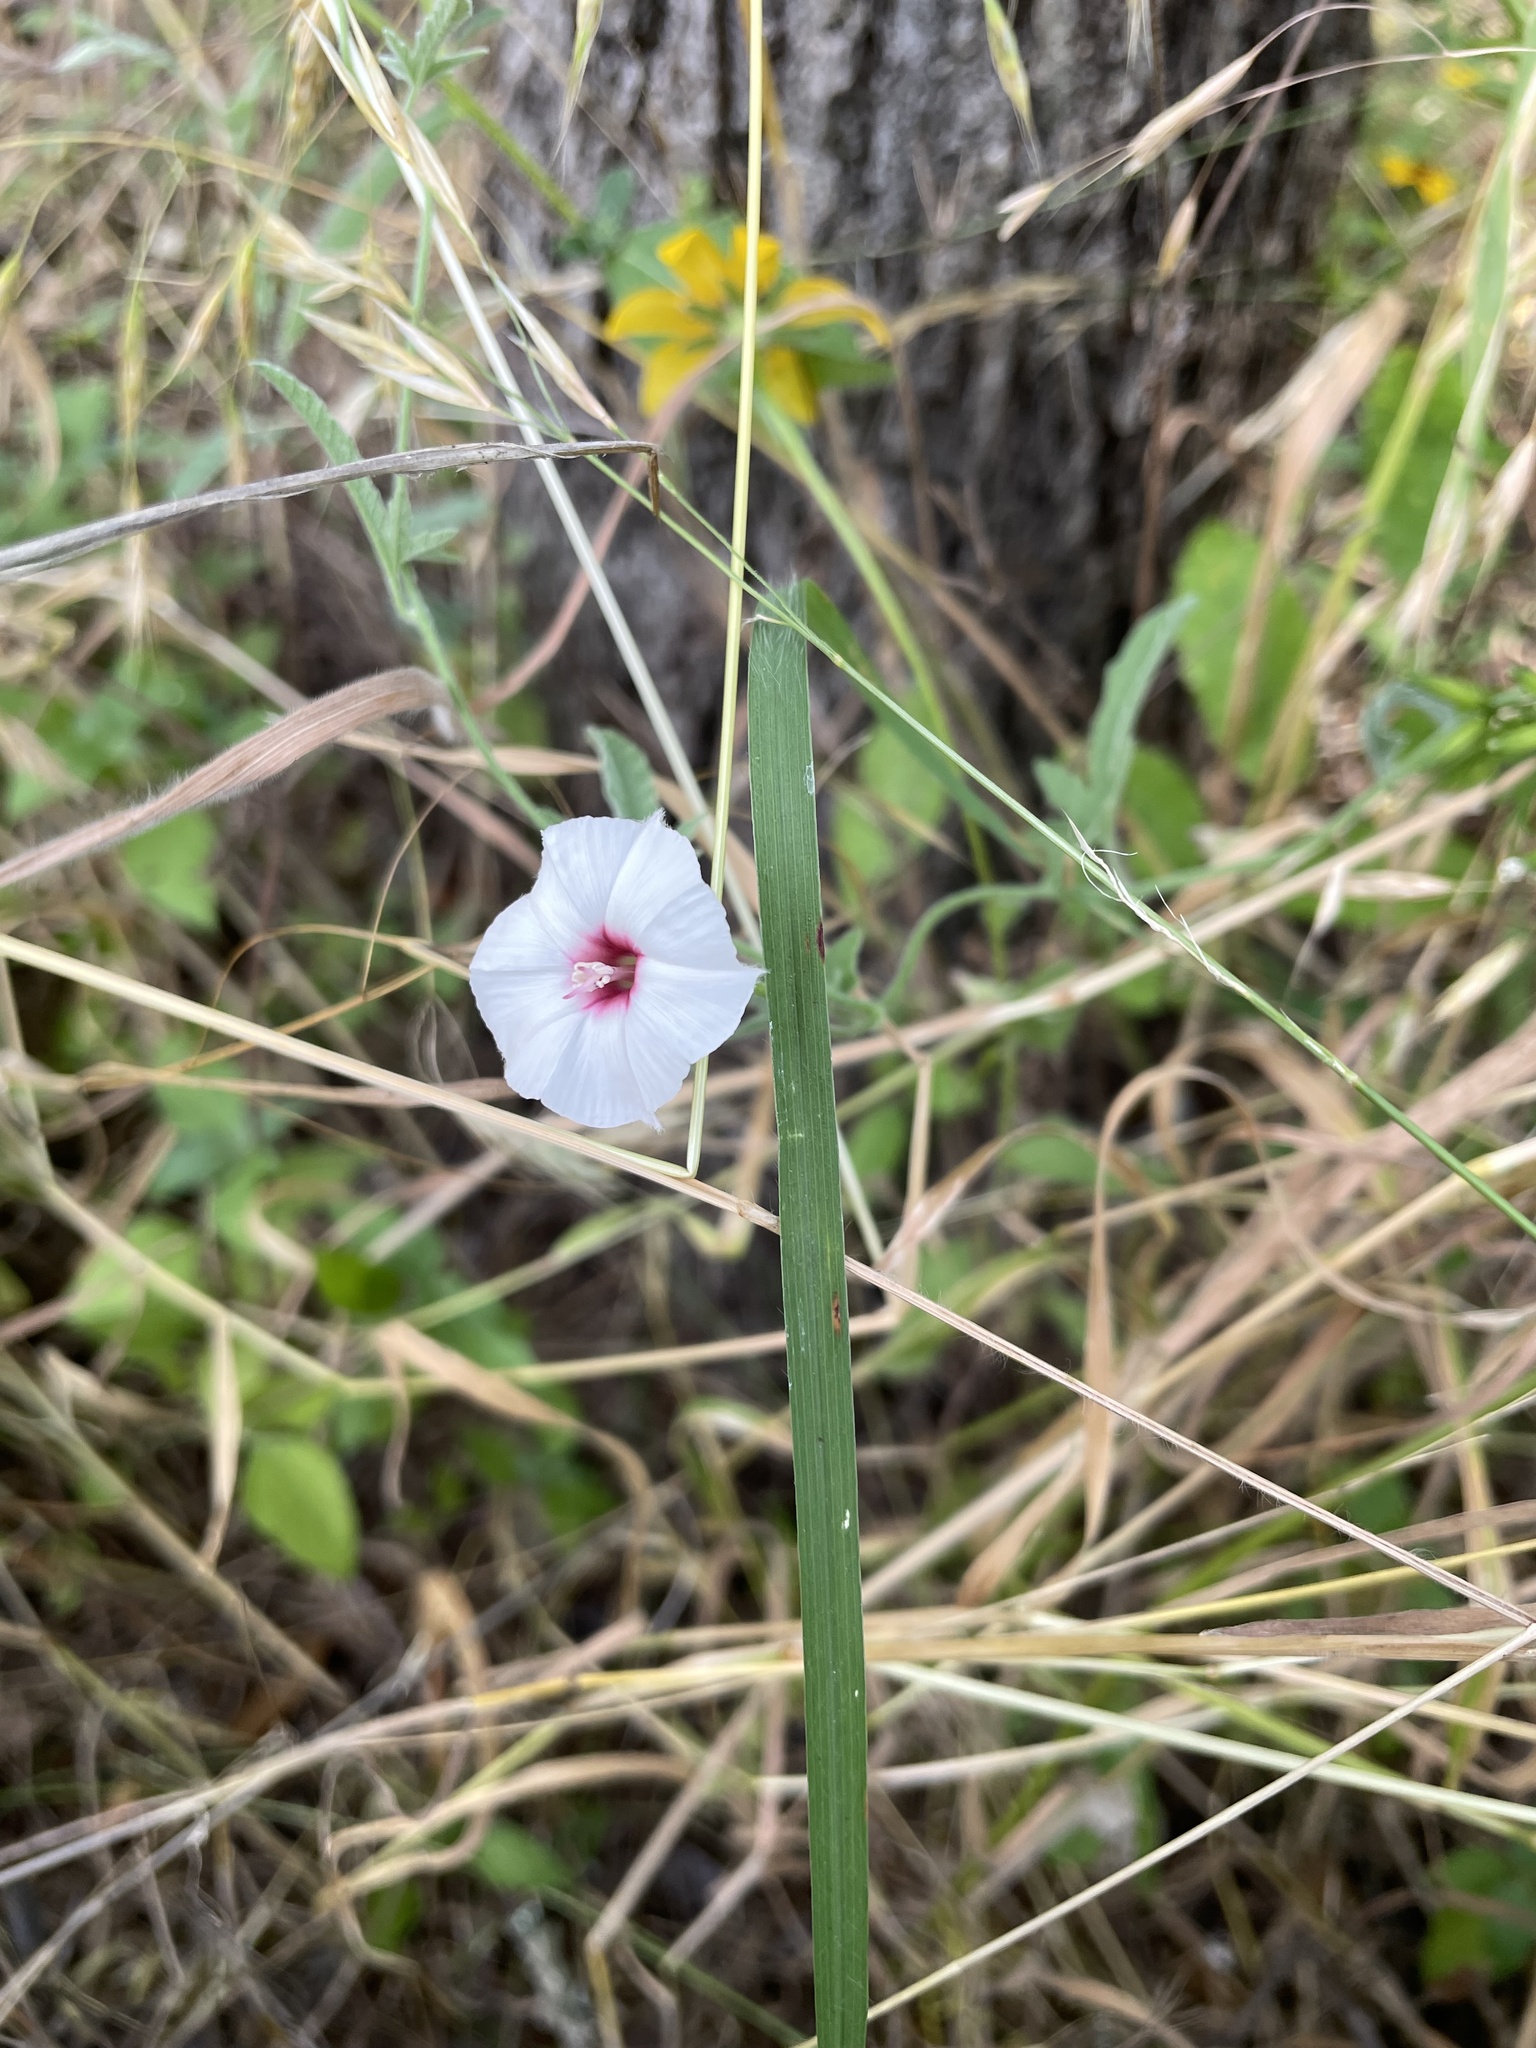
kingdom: Plantae
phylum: Tracheophyta
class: Magnoliopsida
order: Solanales
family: Convolvulaceae
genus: Convolvulus
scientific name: Convolvulus equitans
